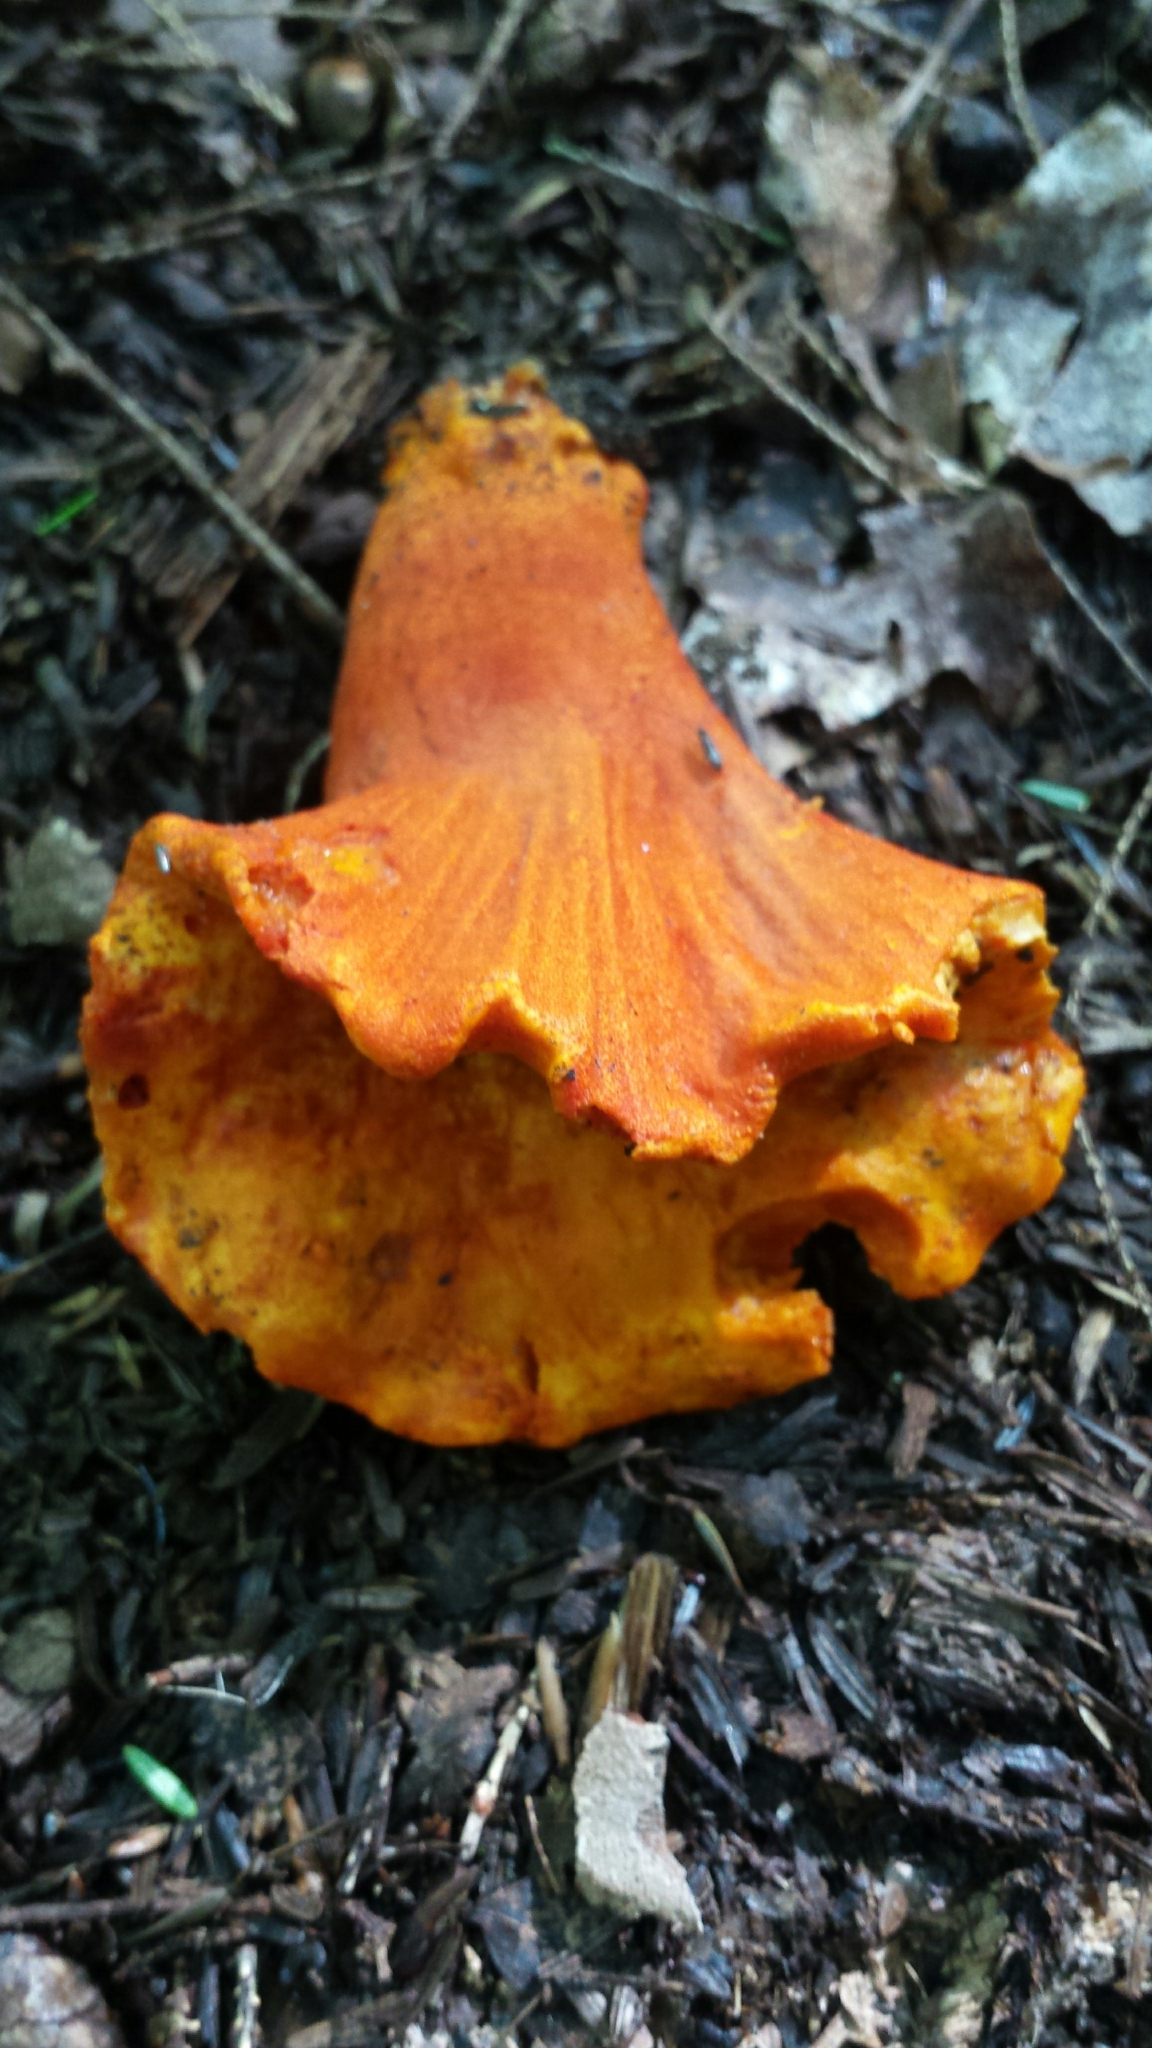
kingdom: Fungi
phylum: Ascomycota
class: Sordariomycetes
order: Hypocreales
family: Hypocreaceae
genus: Hypomyces
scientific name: Hypomyces lactifluorum
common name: Lobster mushroom
